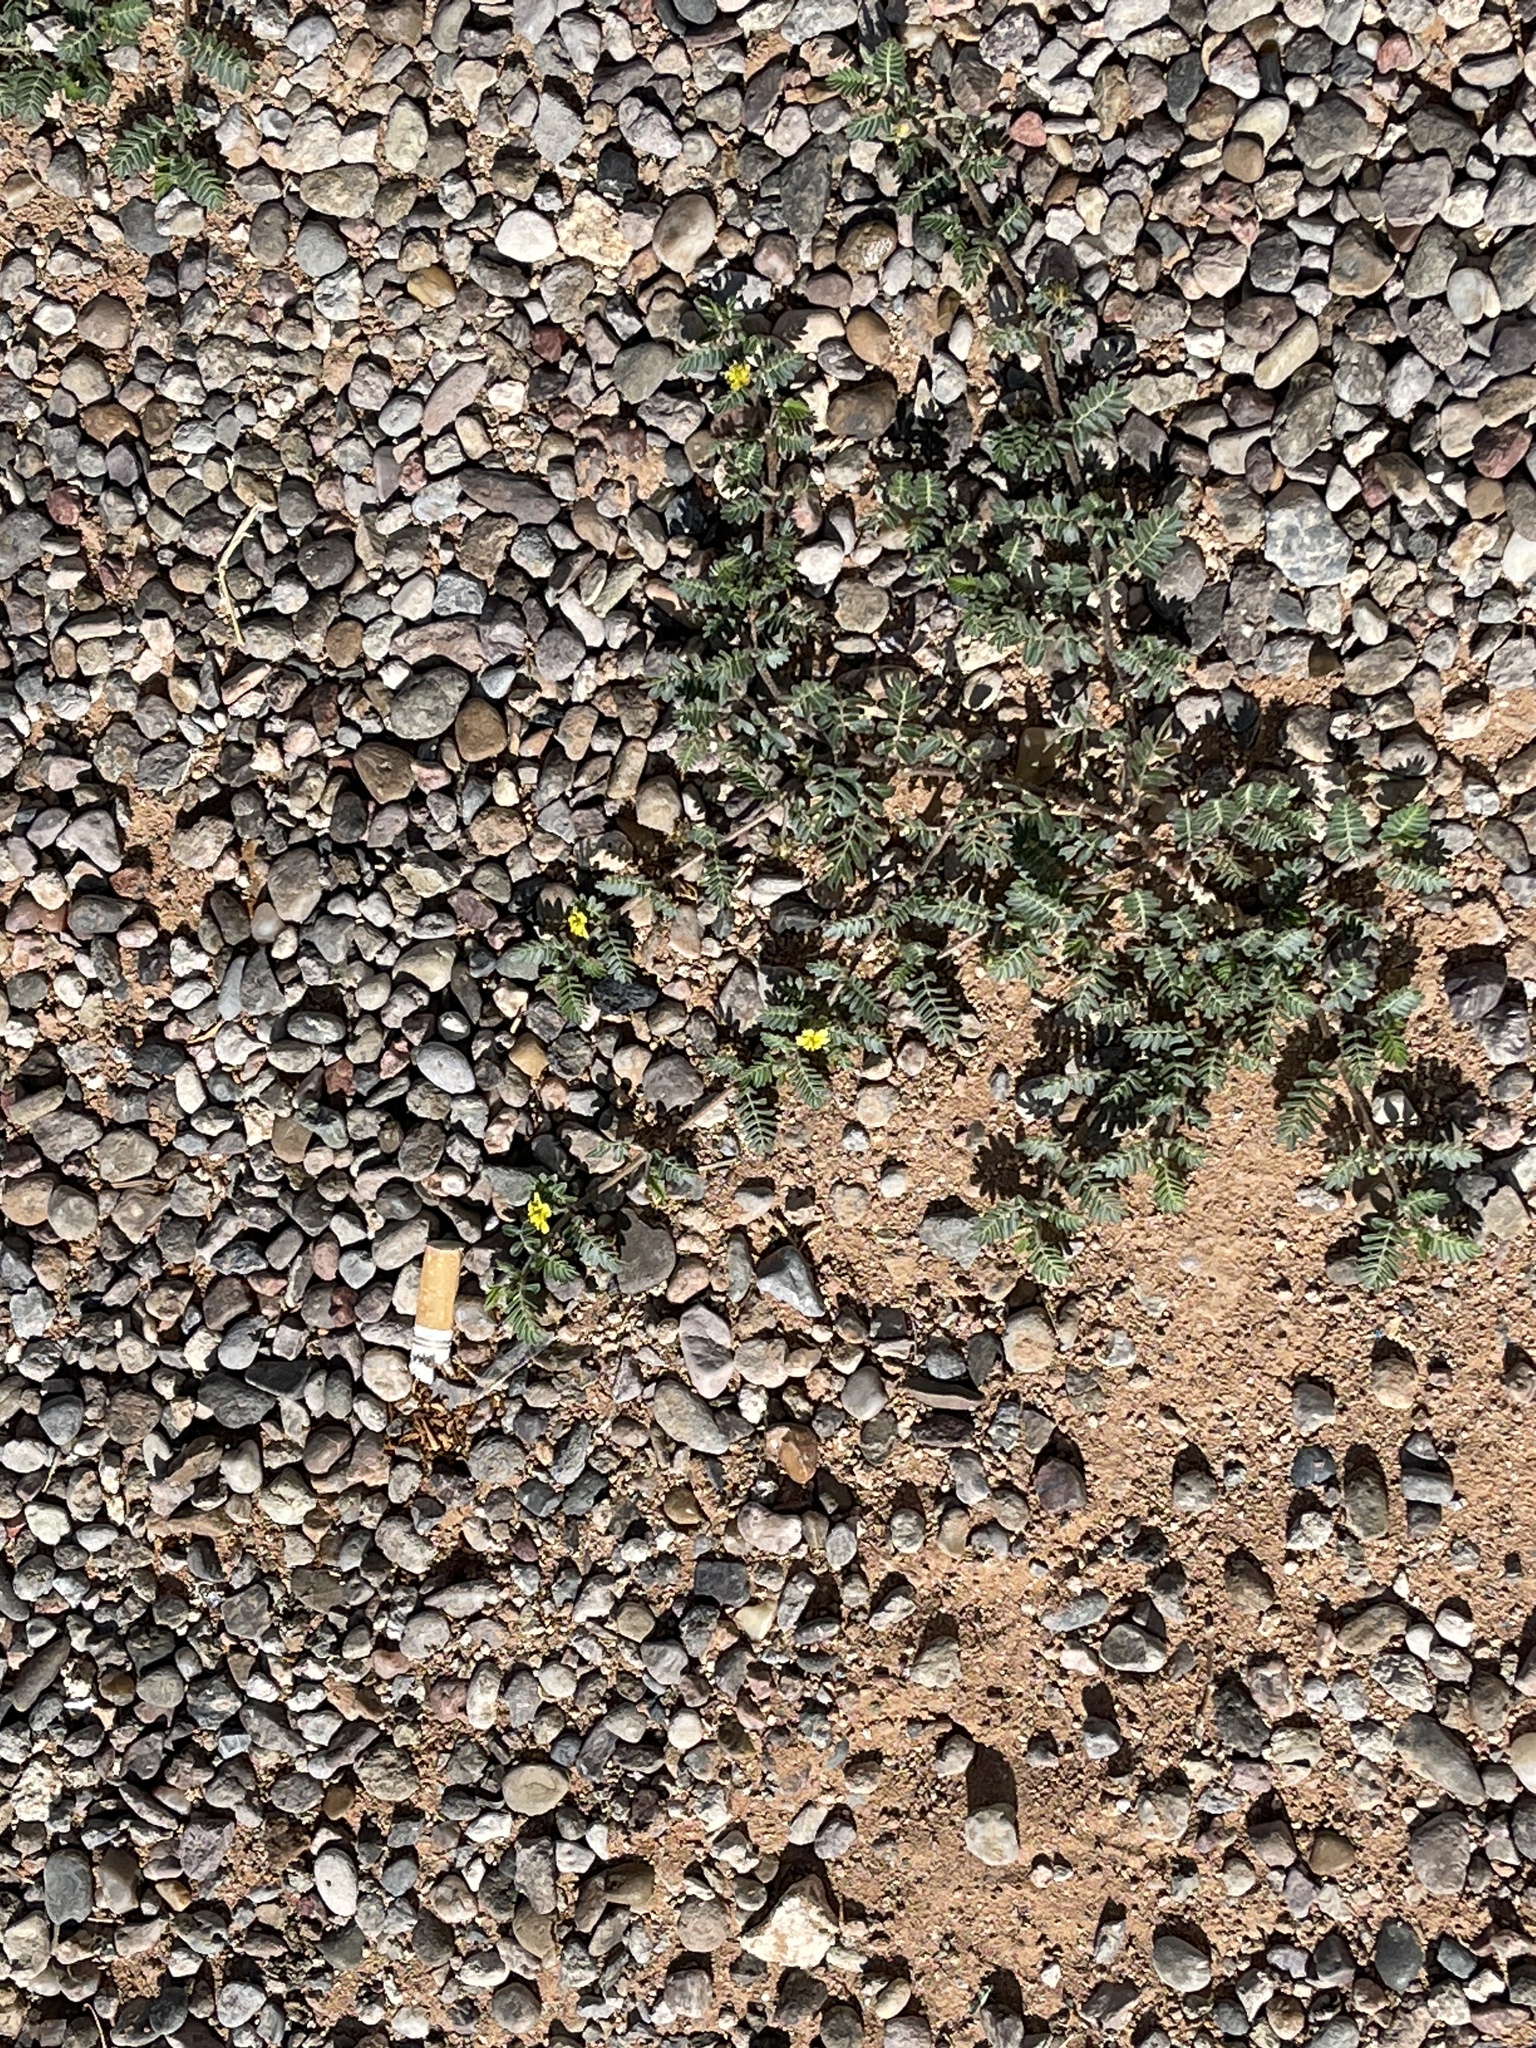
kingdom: Plantae
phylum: Tracheophyta
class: Magnoliopsida
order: Zygophyllales
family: Zygophyllaceae
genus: Tribulus
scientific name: Tribulus terrestris
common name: Puncturevine
